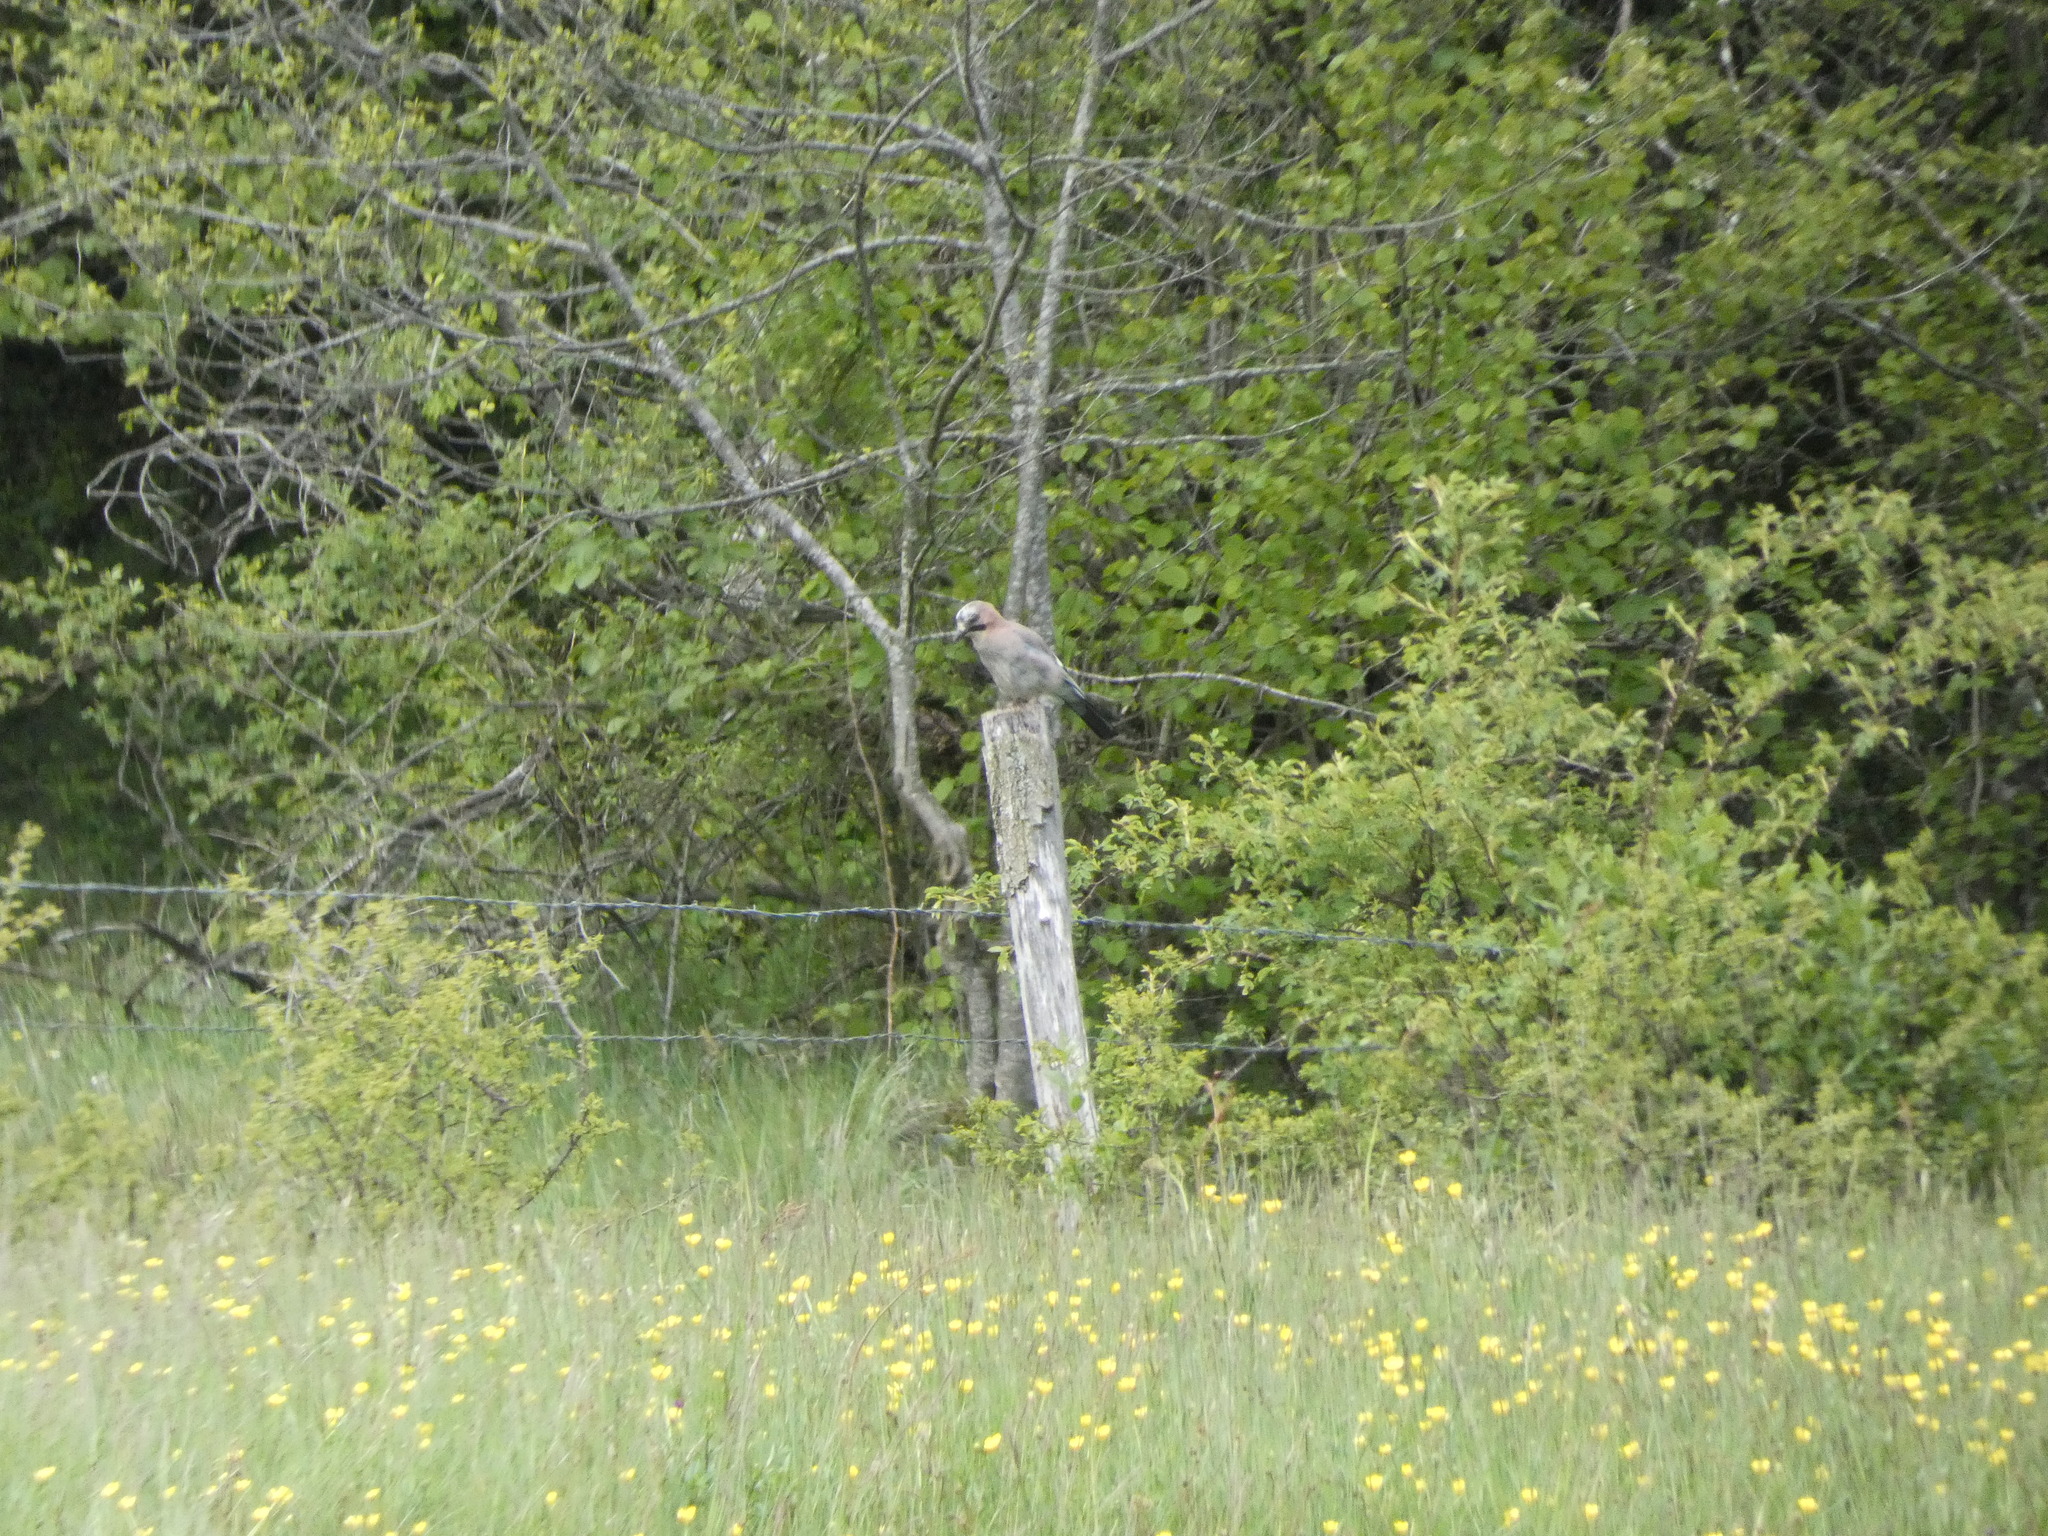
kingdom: Animalia
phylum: Chordata
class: Aves
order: Passeriformes
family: Corvidae
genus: Garrulus
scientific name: Garrulus glandarius
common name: Eurasian jay
